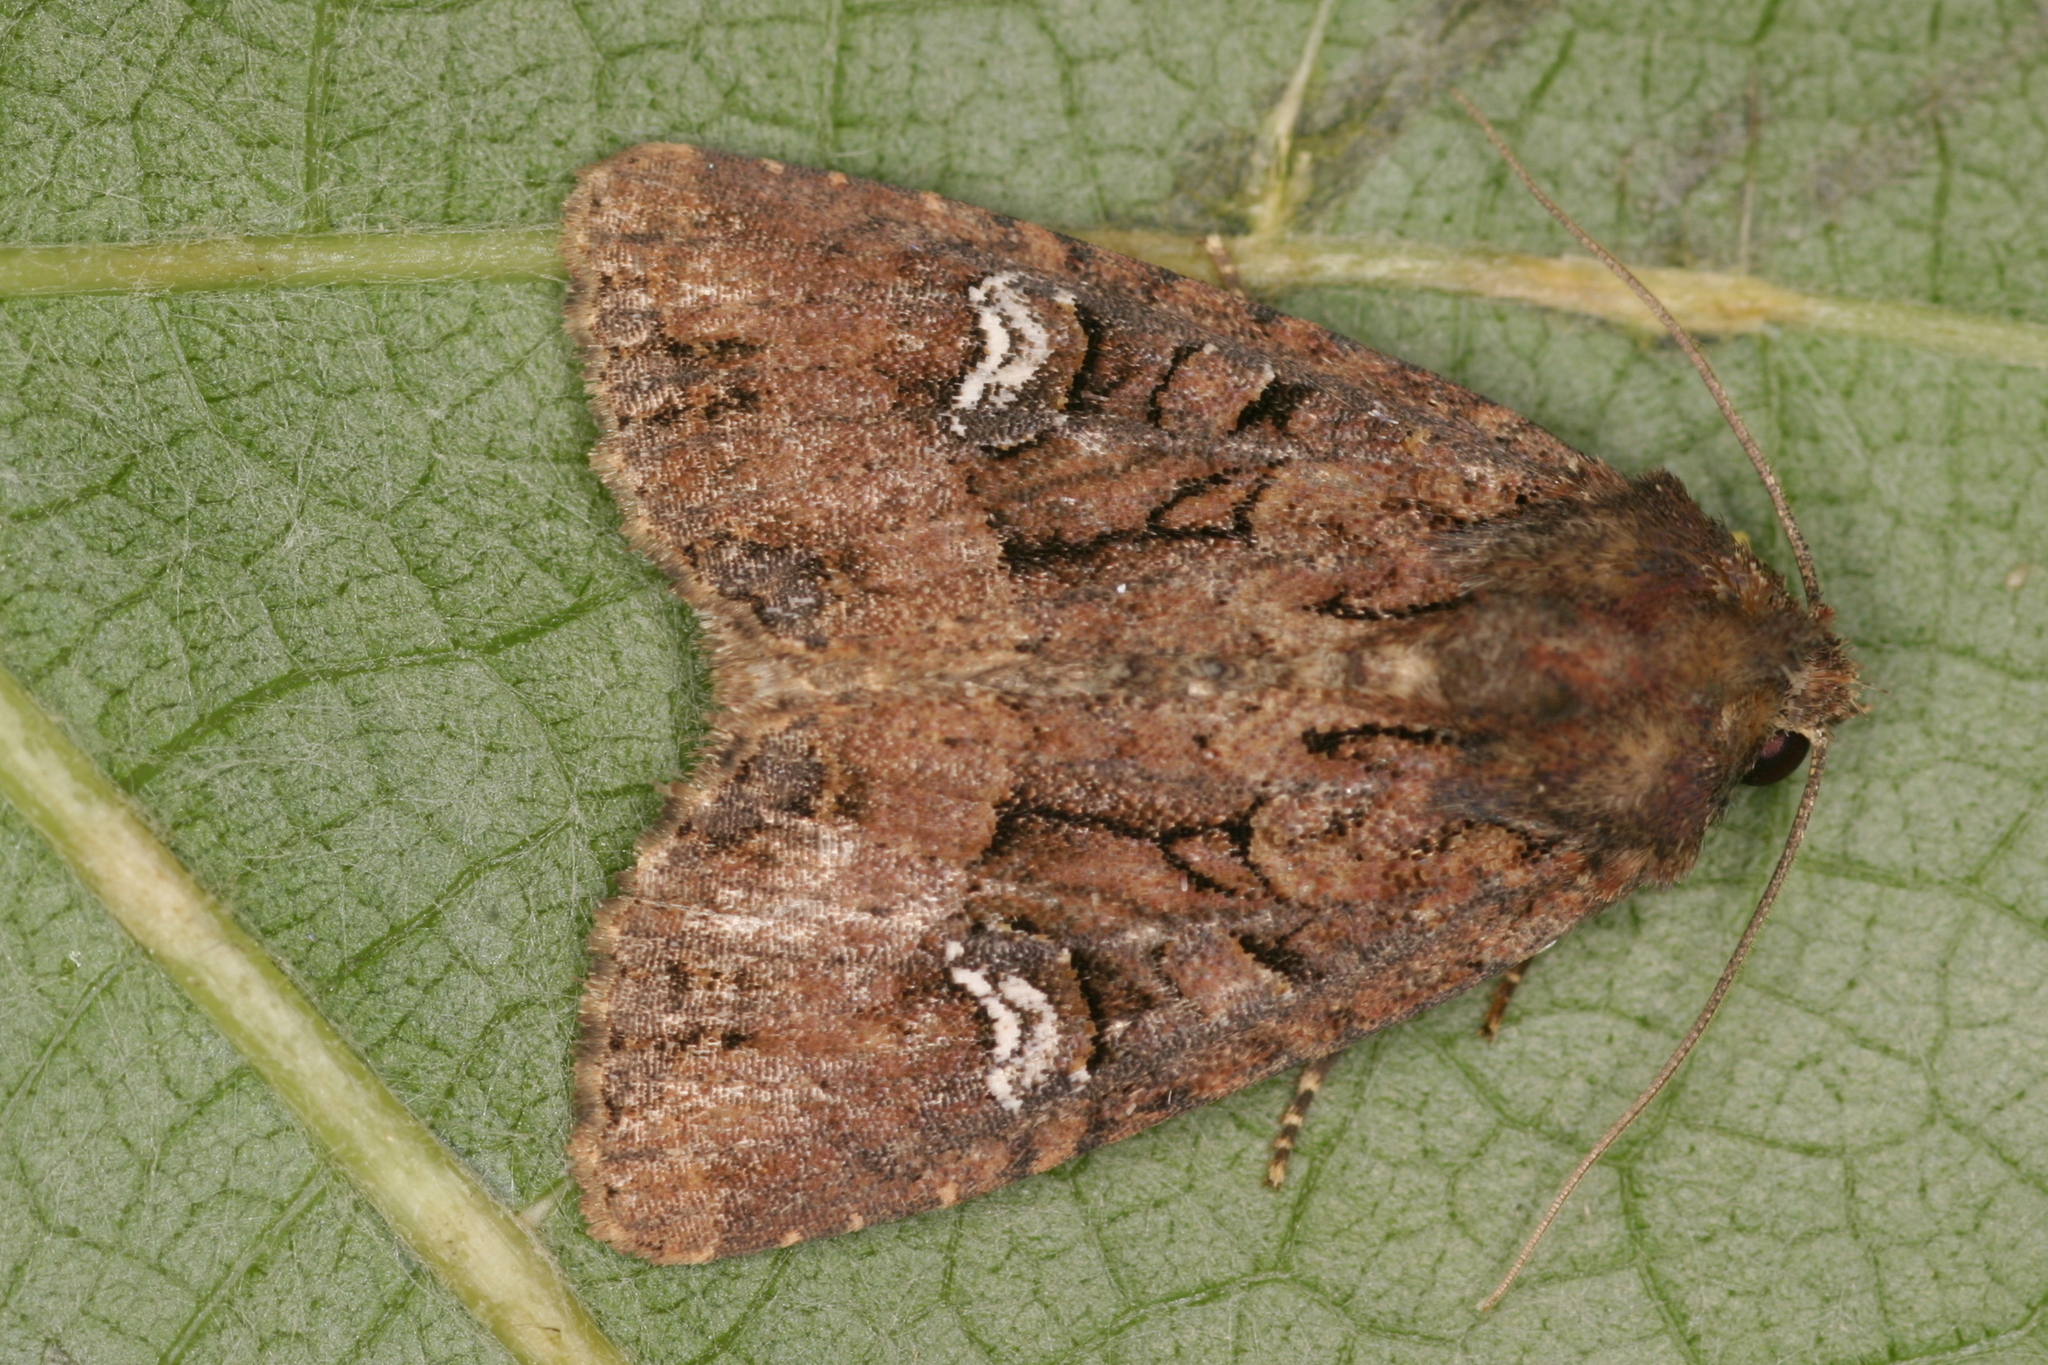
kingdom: Animalia
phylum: Arthropoda
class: Insecta
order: Lepidoptera
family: Noctuidae
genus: Mesapamea
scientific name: Mesapamea
